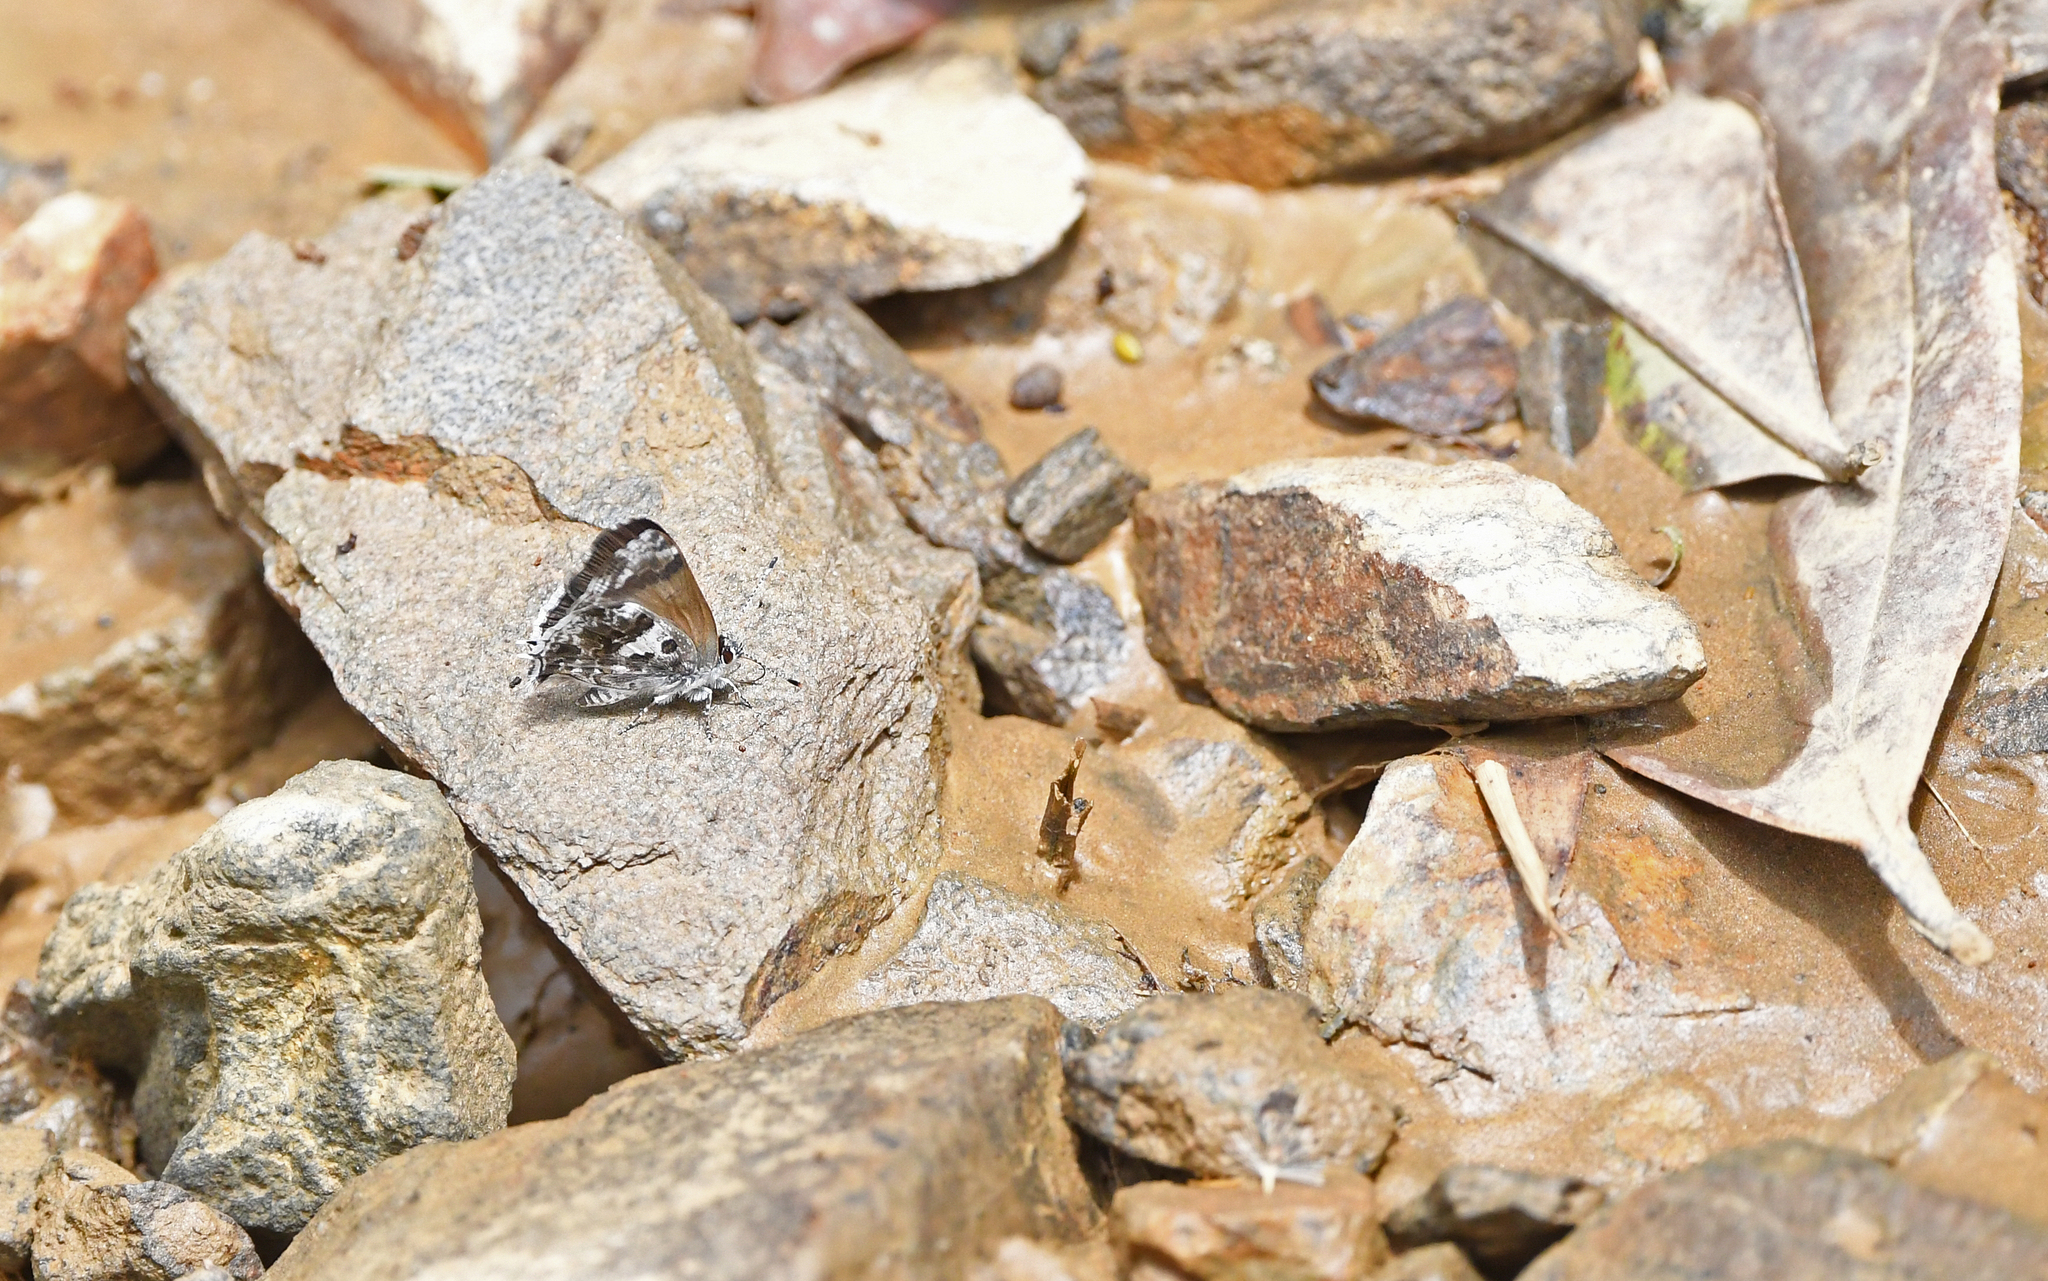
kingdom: Animalia
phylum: Arthropoda
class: Insecta
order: Lepidoptera
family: Lycaenidae
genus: Strymon
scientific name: Strymon
